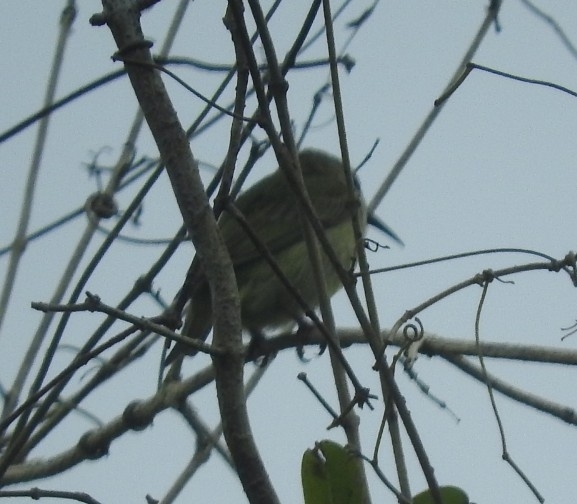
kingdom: Animalia
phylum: Chordata
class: Aves
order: Passeriformes
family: Thraupidae
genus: Cyanerpes
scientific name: Cyanerpes cyaneus
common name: Red-legged honeycreeper
